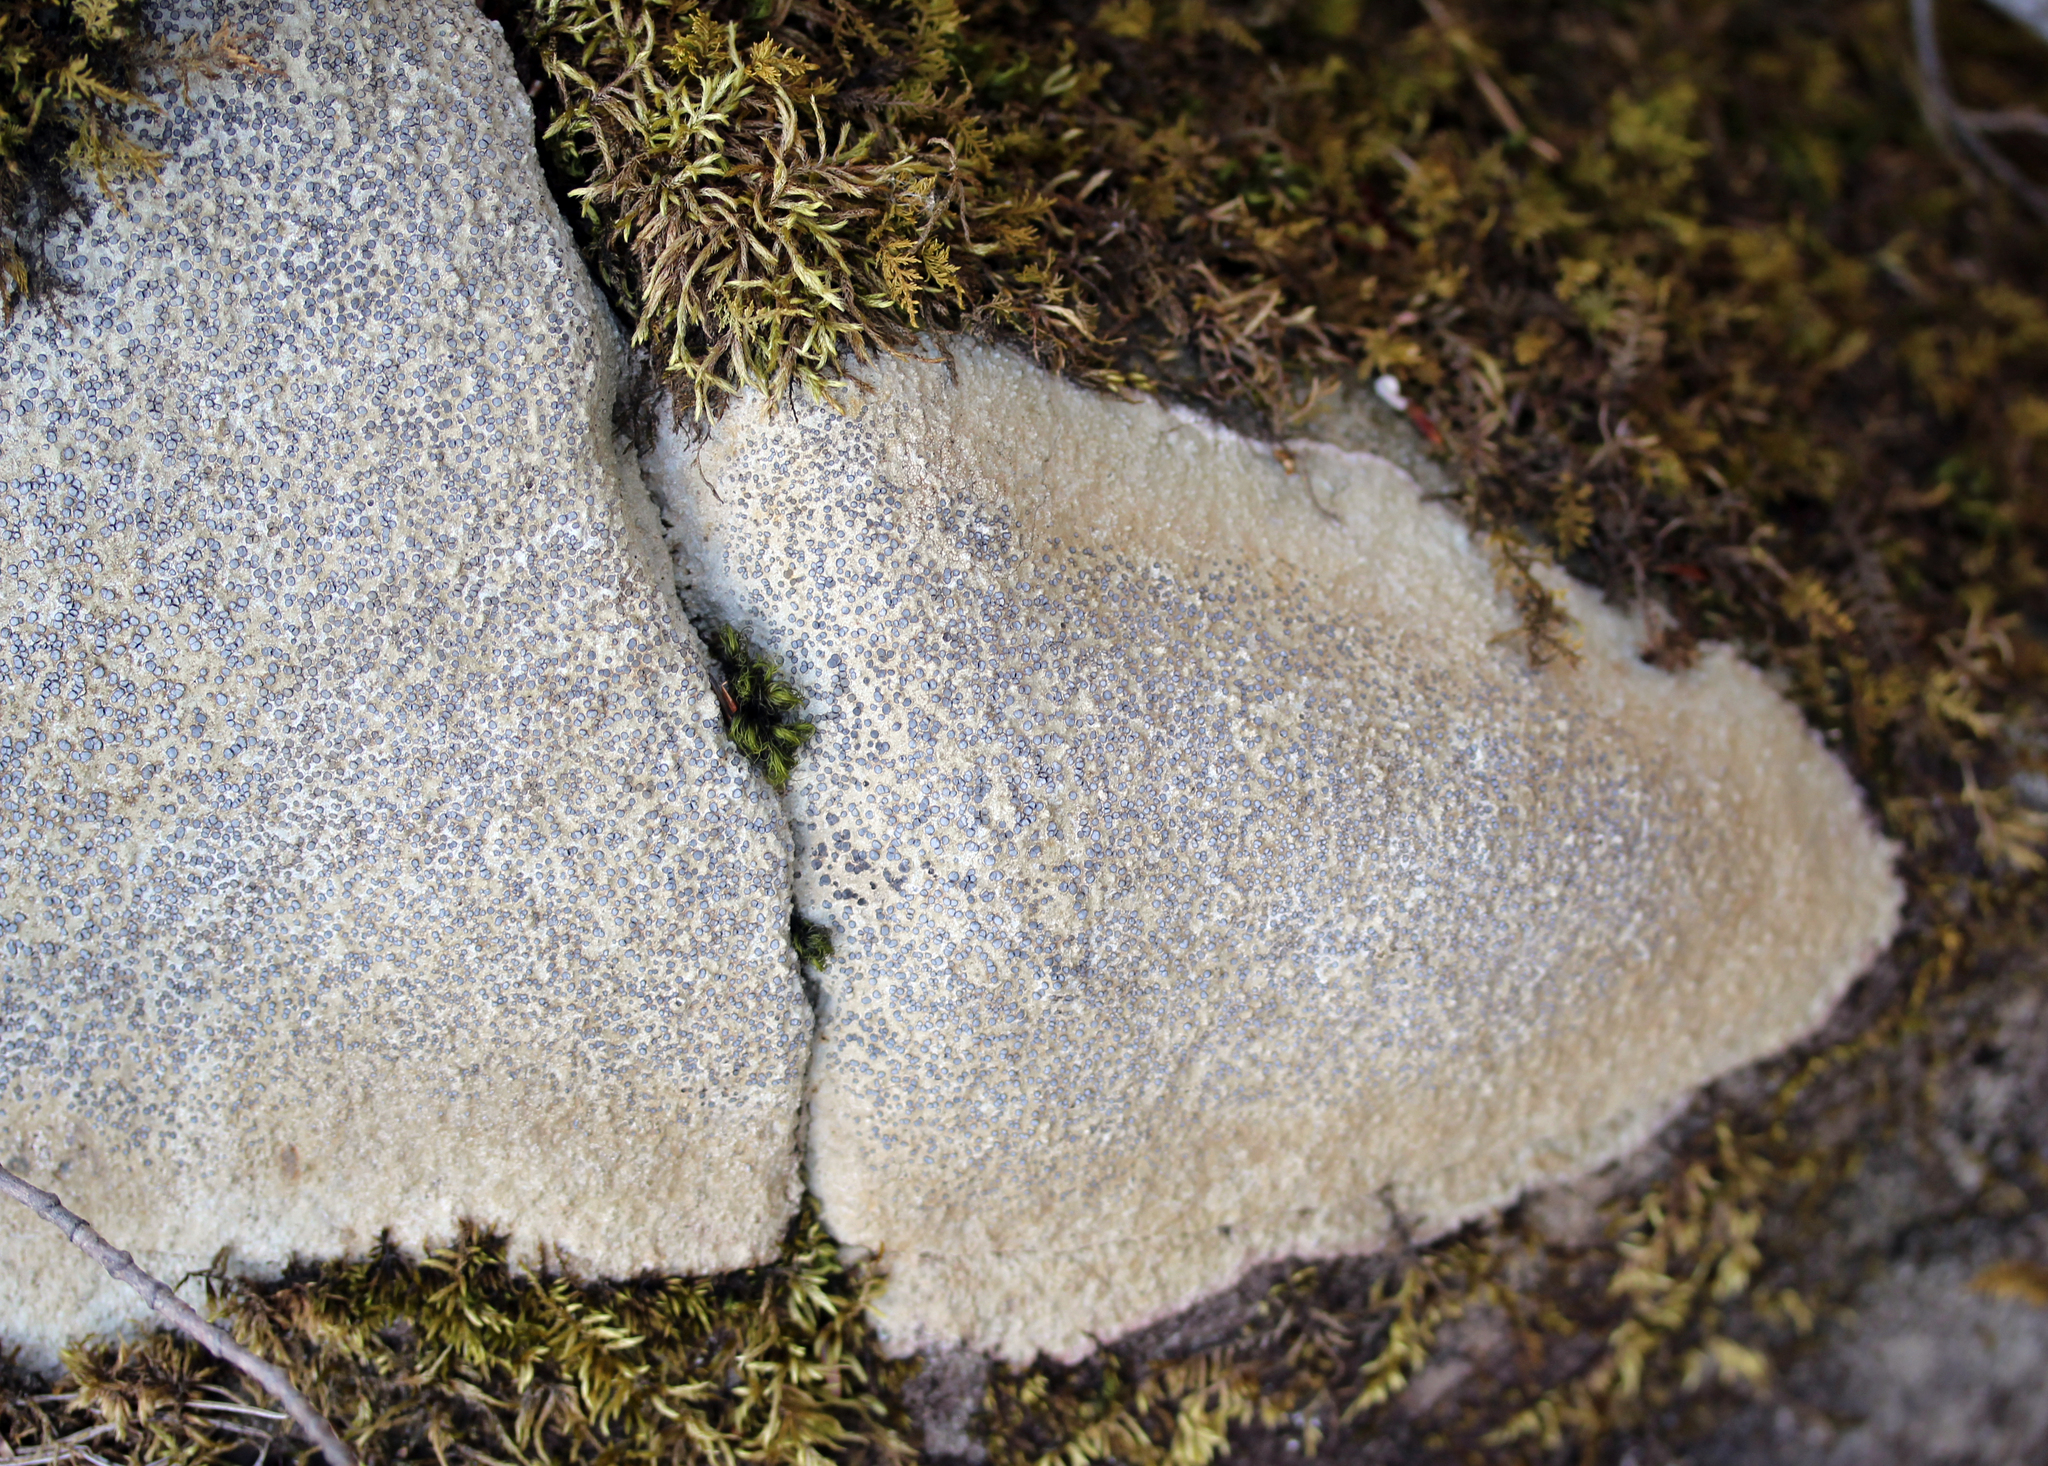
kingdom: Fungi
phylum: Ascomycota
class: Lecanoromycetes
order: Lecideales
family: Lecideaceae
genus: Porpidia
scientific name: Porpidia albocaerulescens
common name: Smokey-eyed boulder lichen
